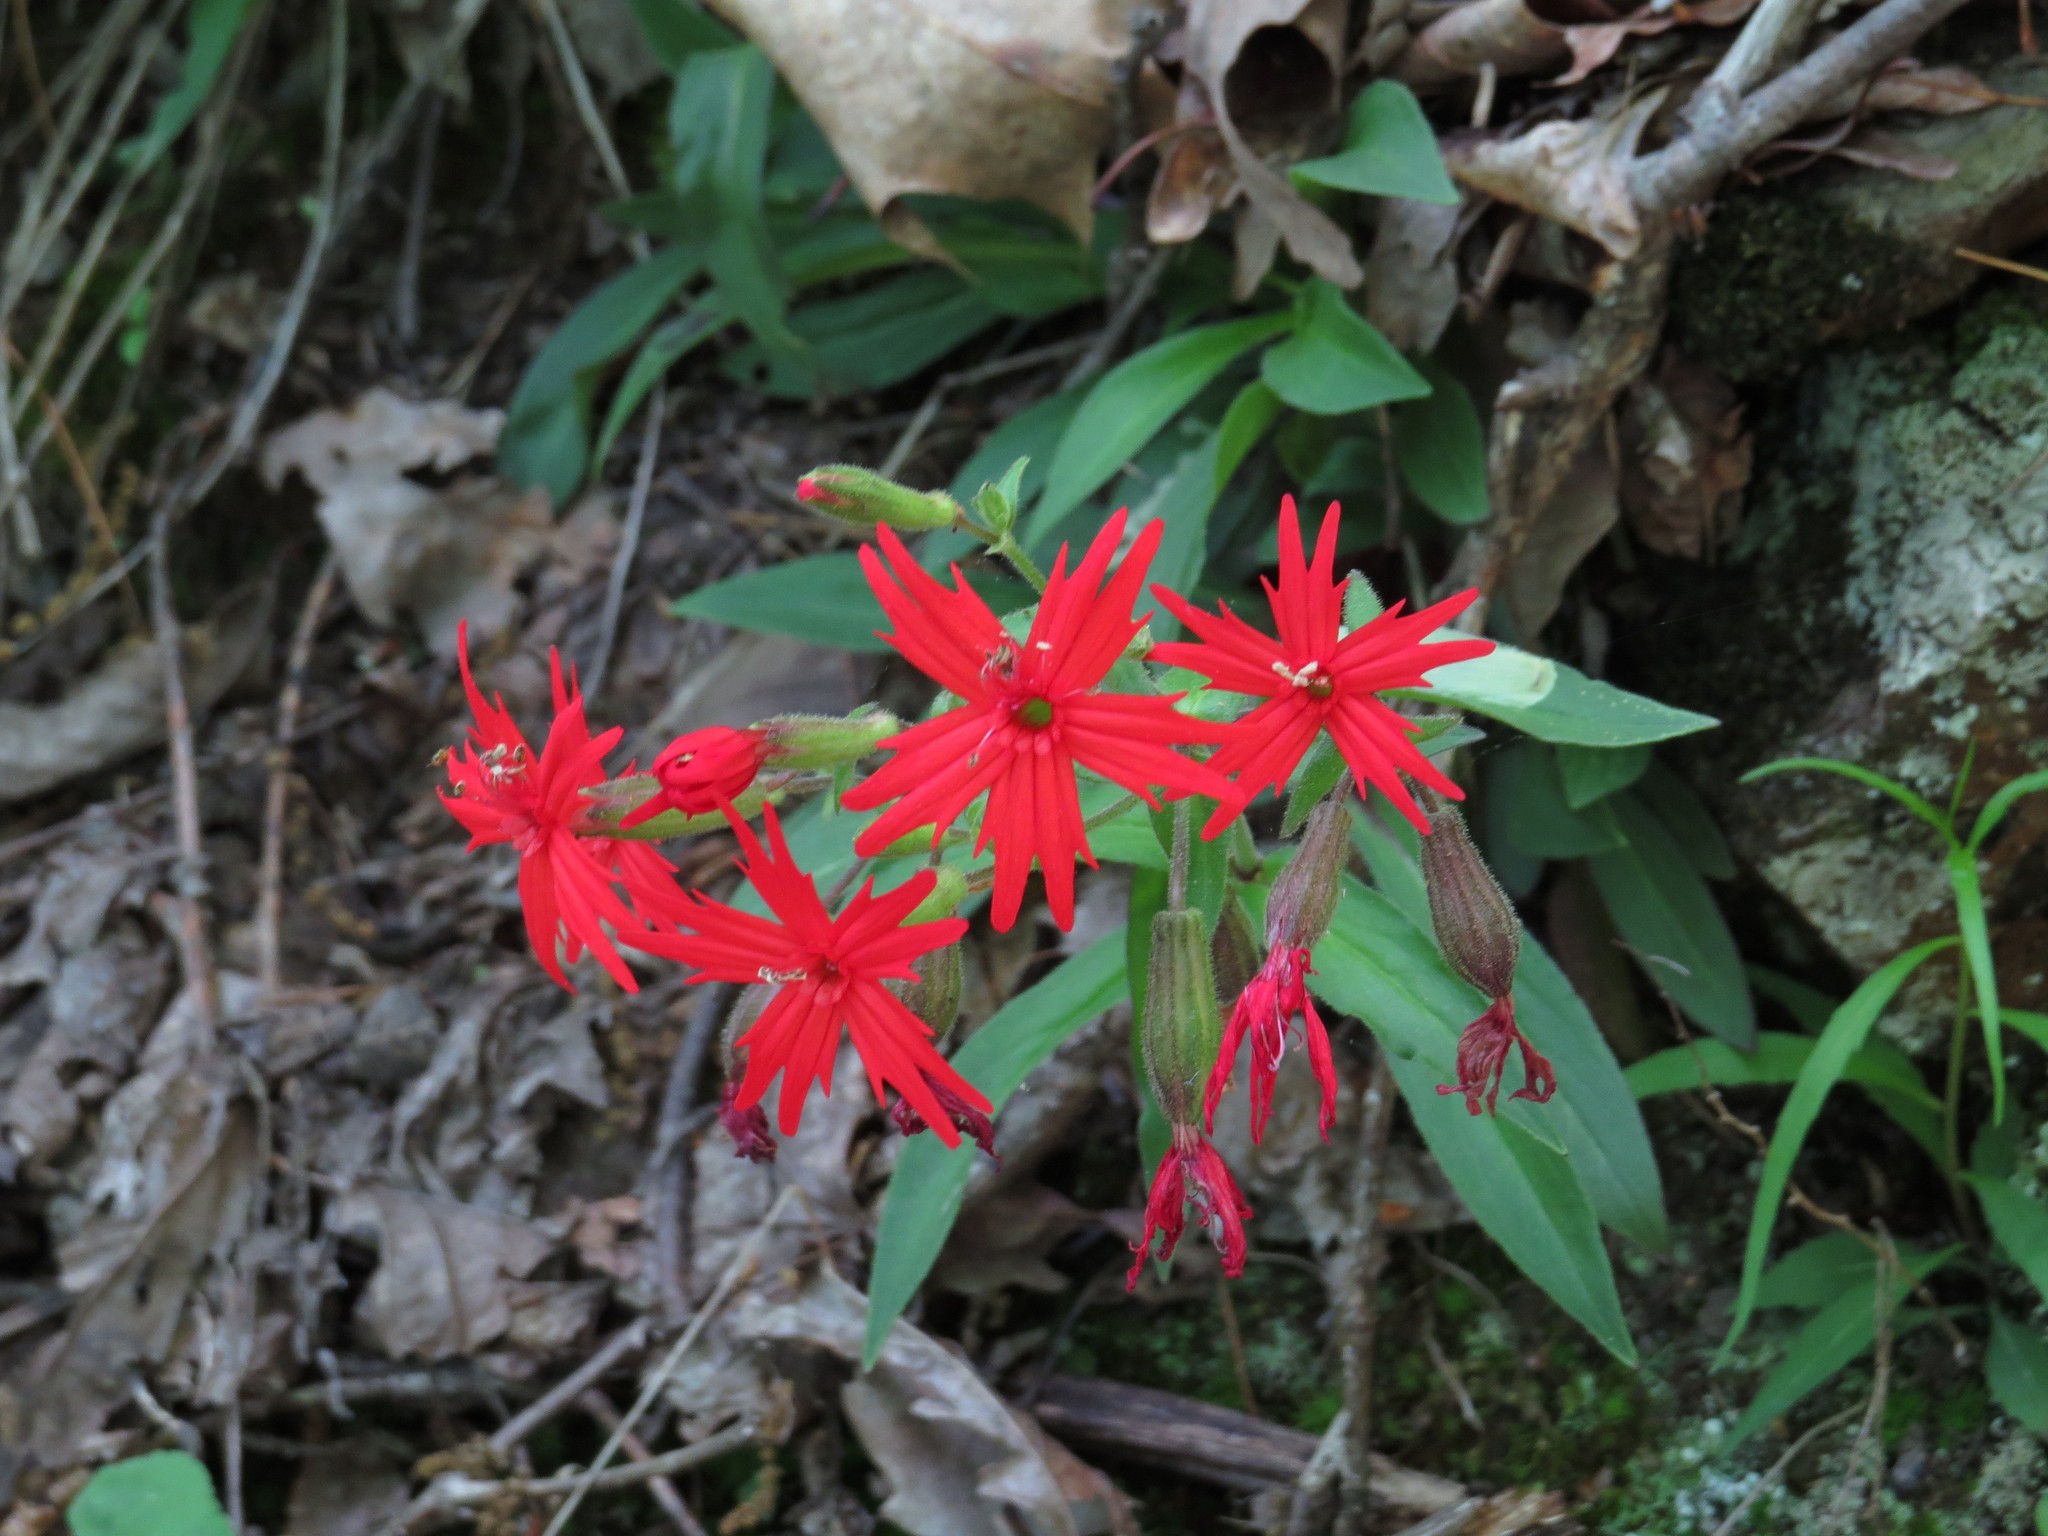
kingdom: Plantae
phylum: Tracheophyta
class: Magnoliopsida
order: Caryophyllales
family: Caryophyllaceae
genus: Silene
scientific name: Silene virginica
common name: Fire-pink
